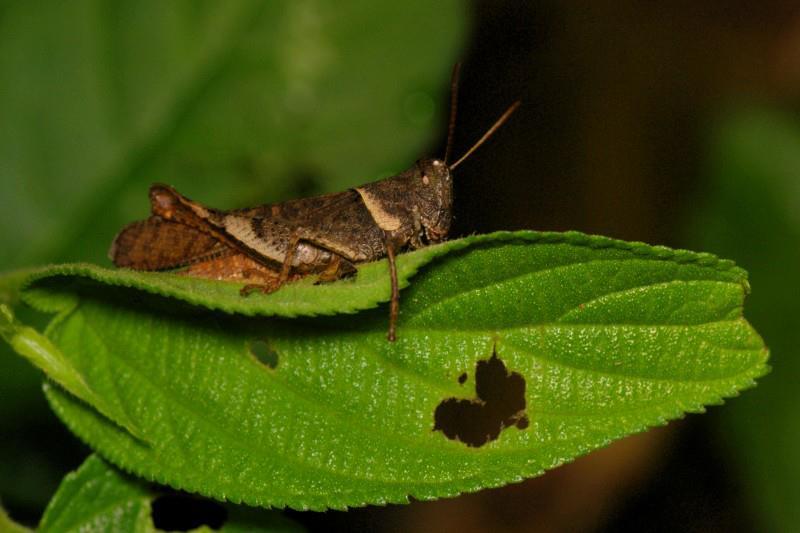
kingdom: Animalia
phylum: Arthropoda
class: Insecta
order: Orthoptera
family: Acrididae
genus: Eucoptacra
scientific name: Eucoptacra binghami
